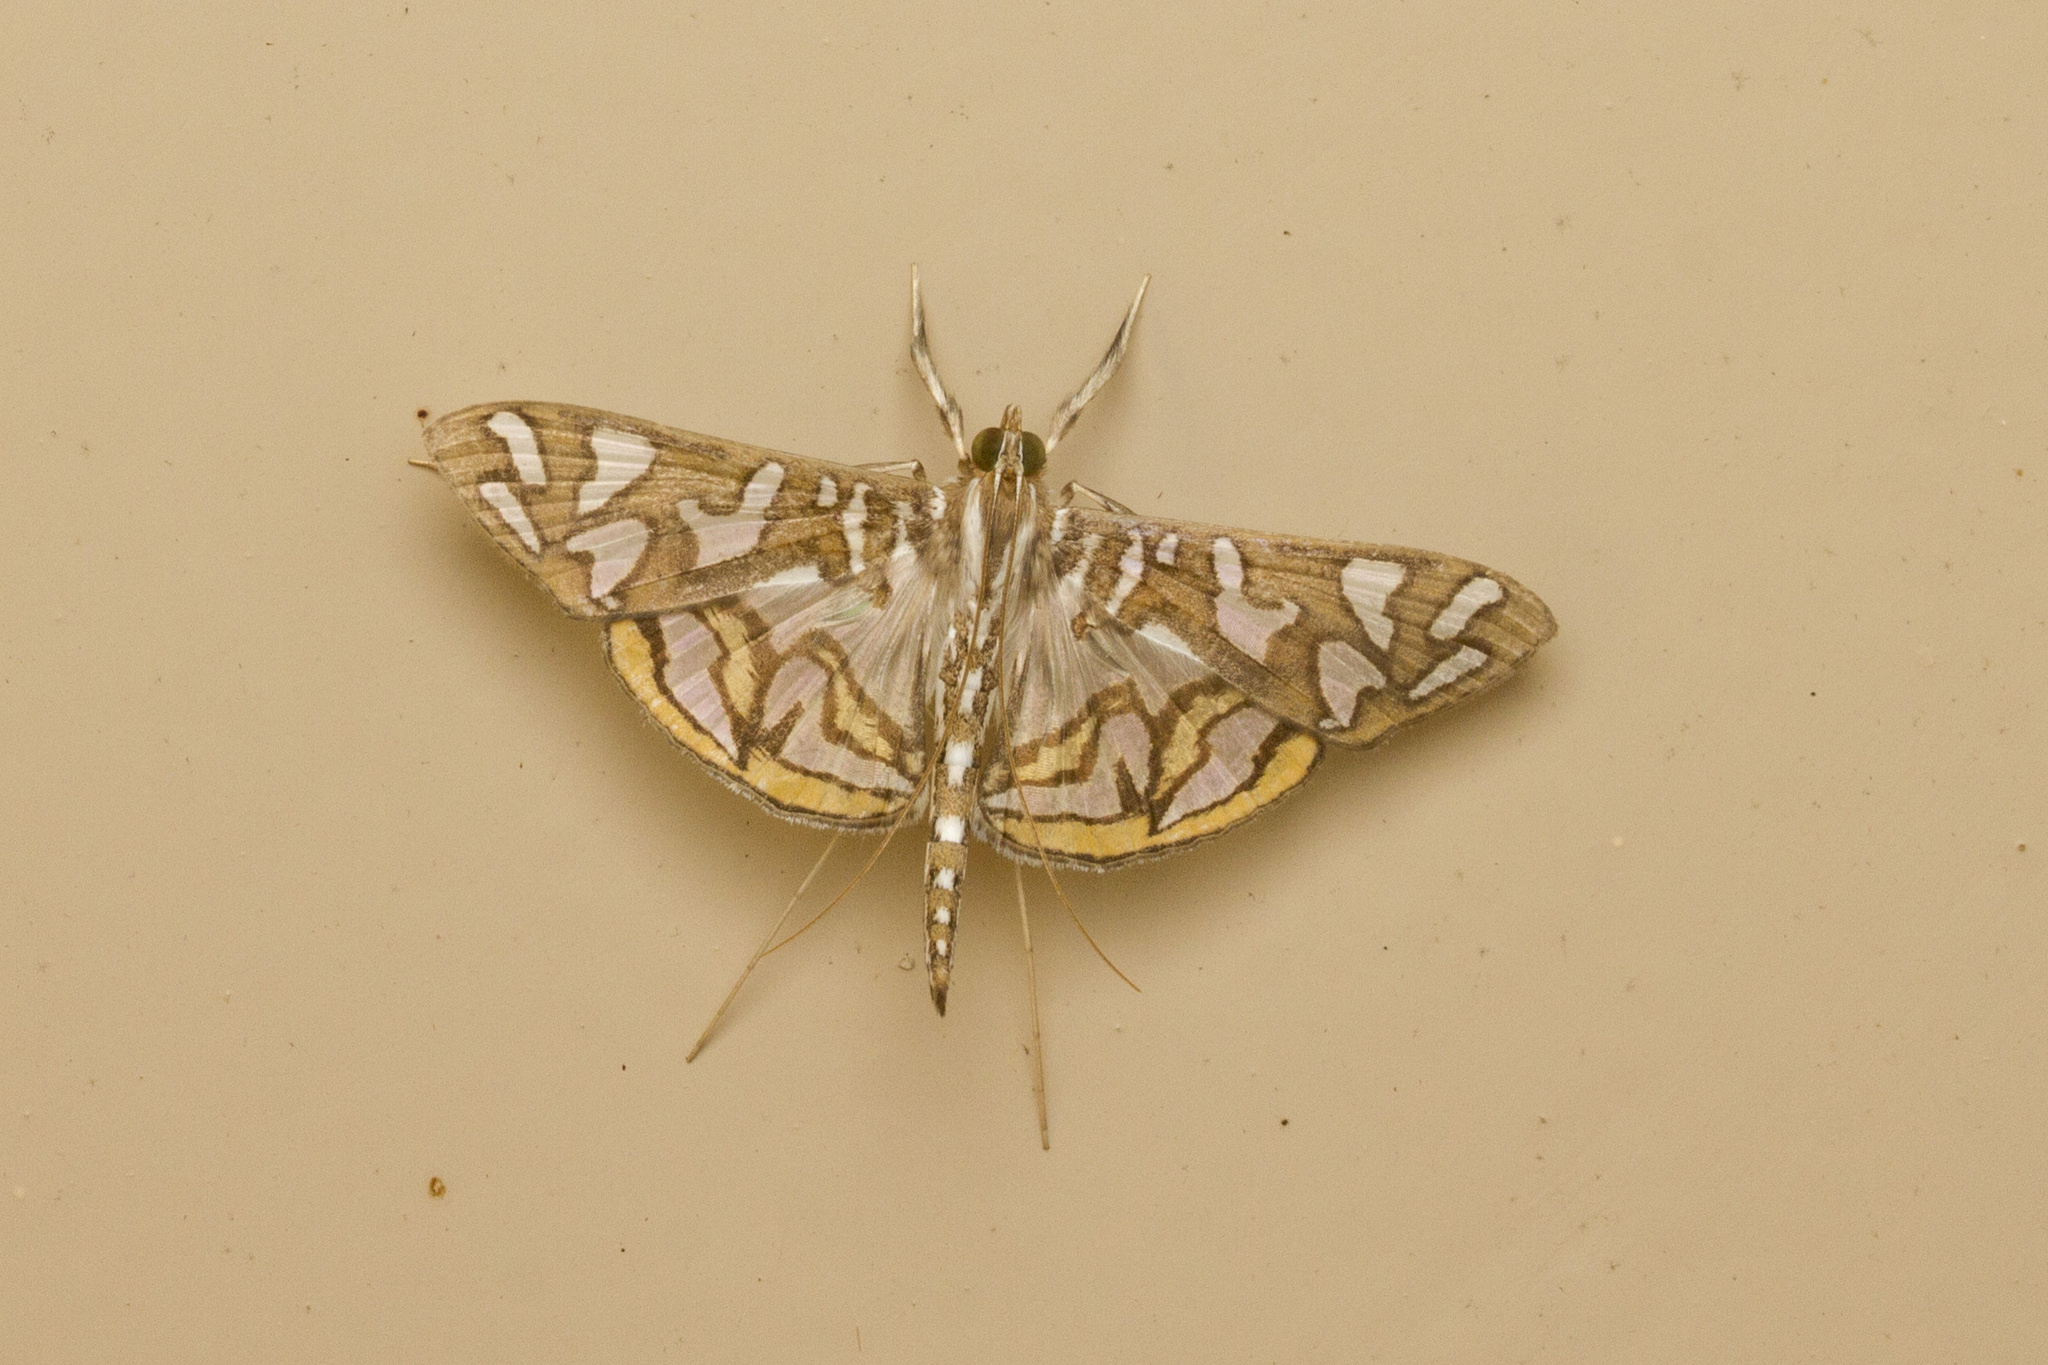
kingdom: Animalia
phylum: Arthropoda
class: Insecta
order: Lepidoptera
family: Crambidae
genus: Nausinoe
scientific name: Nausinoe perspectata
